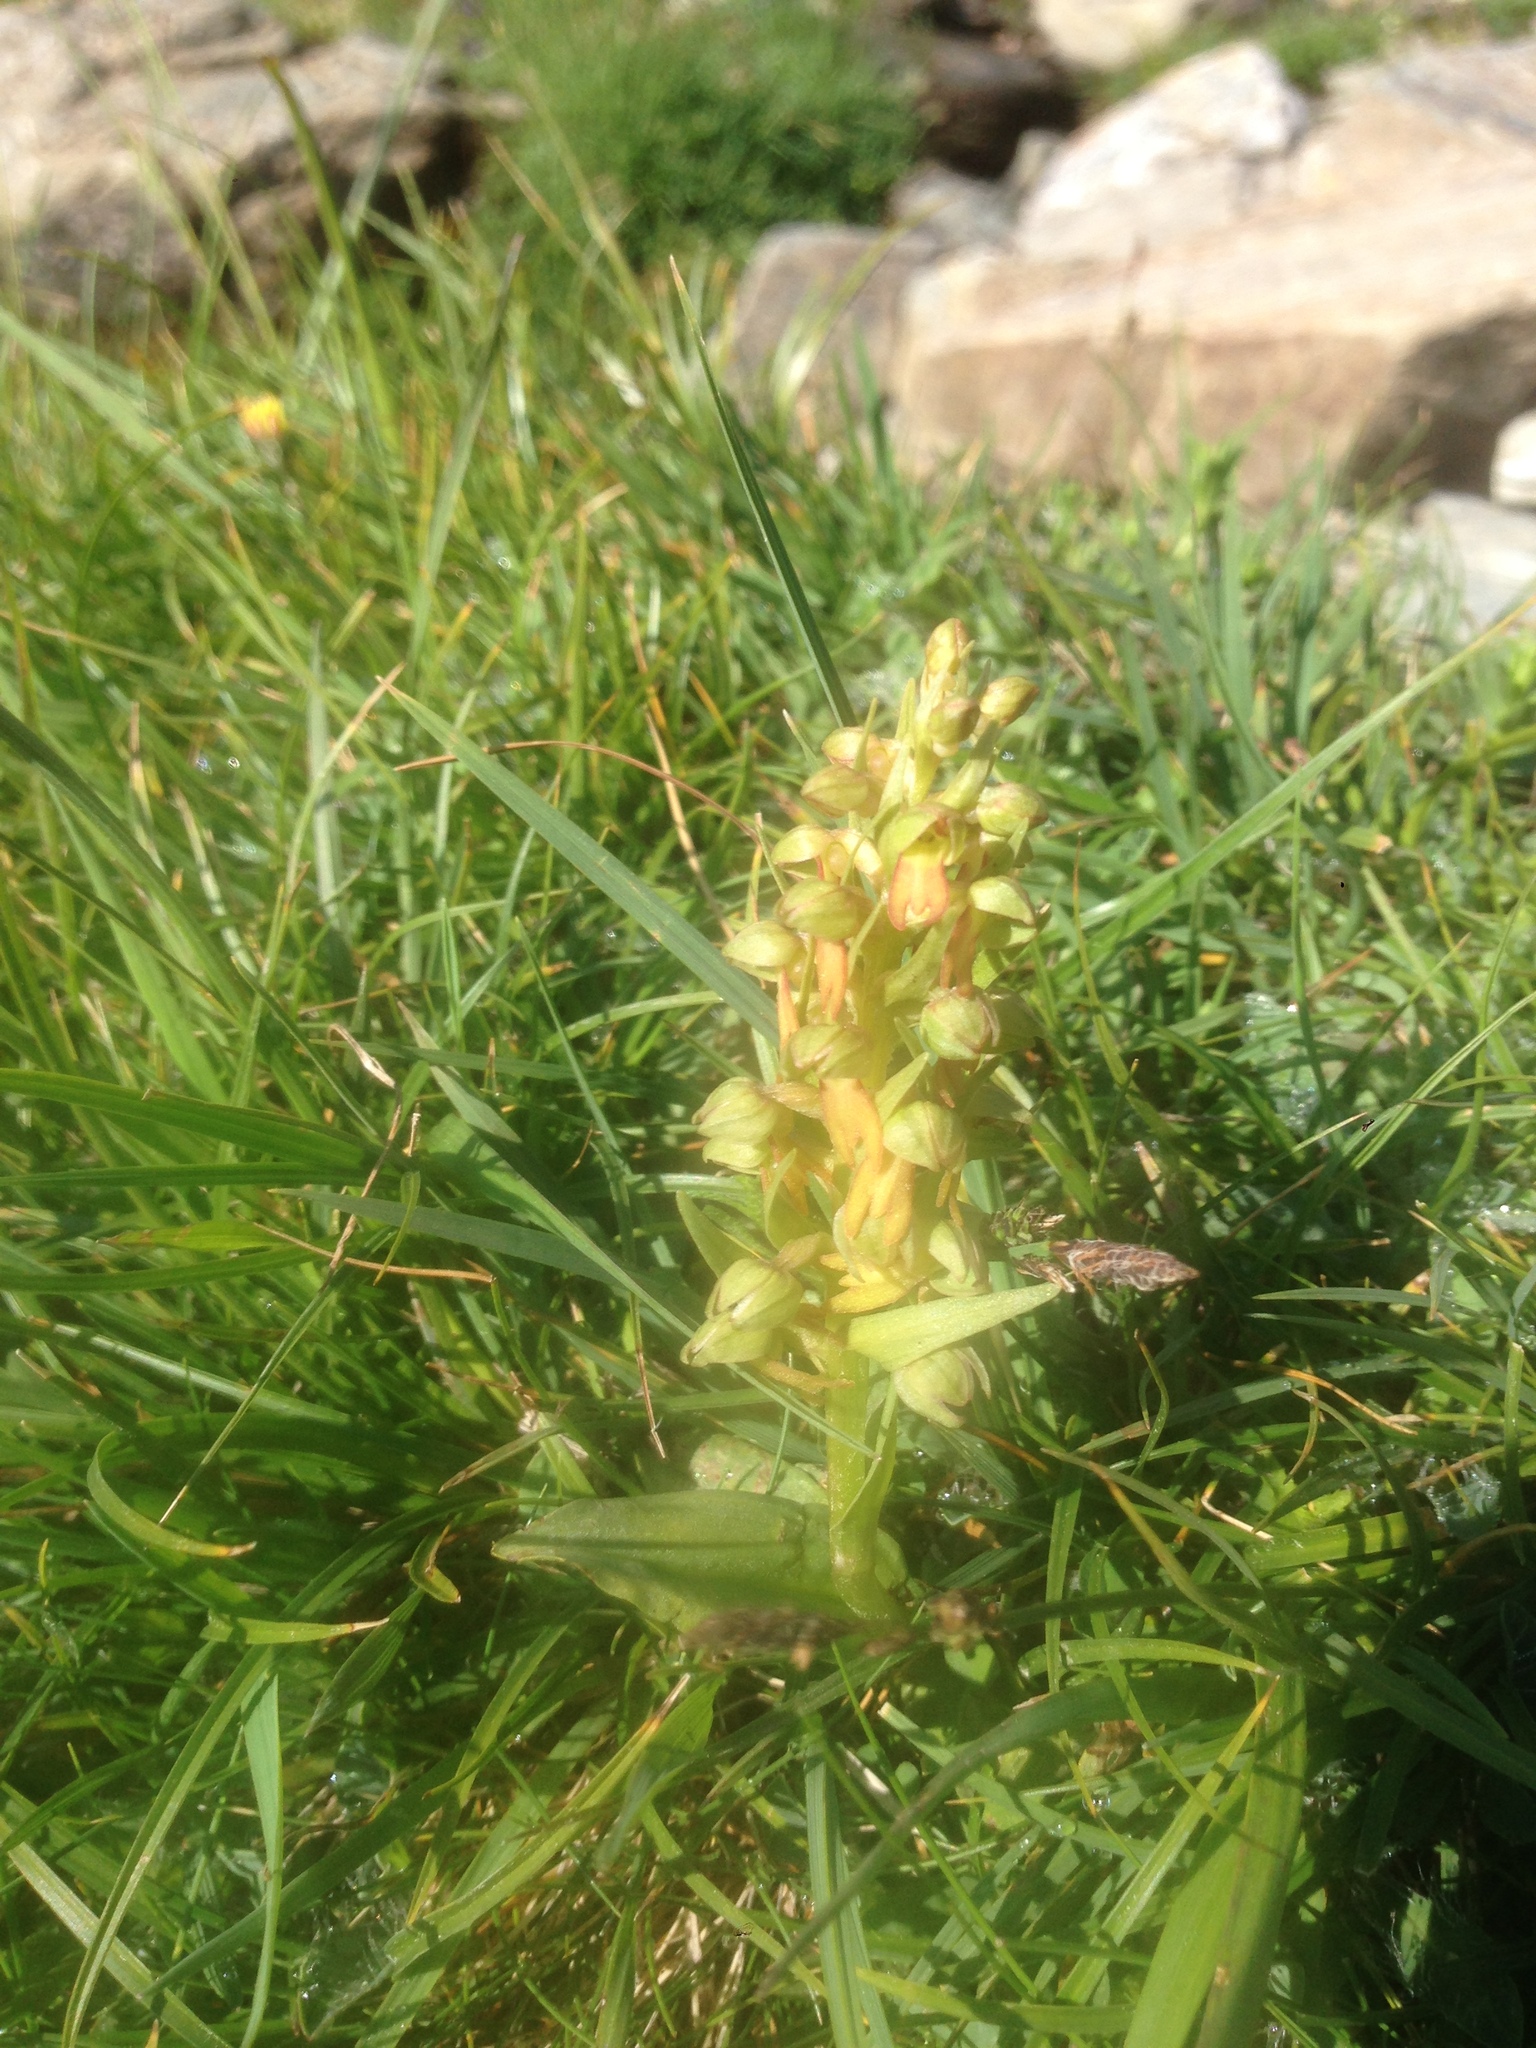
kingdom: Plantae
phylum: Tracheophyta
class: Liliopsida
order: Asparagales
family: Orchidaceae
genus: Dactylorhiza
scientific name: Dactylorhiza viridis
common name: Longbract frog orchid
